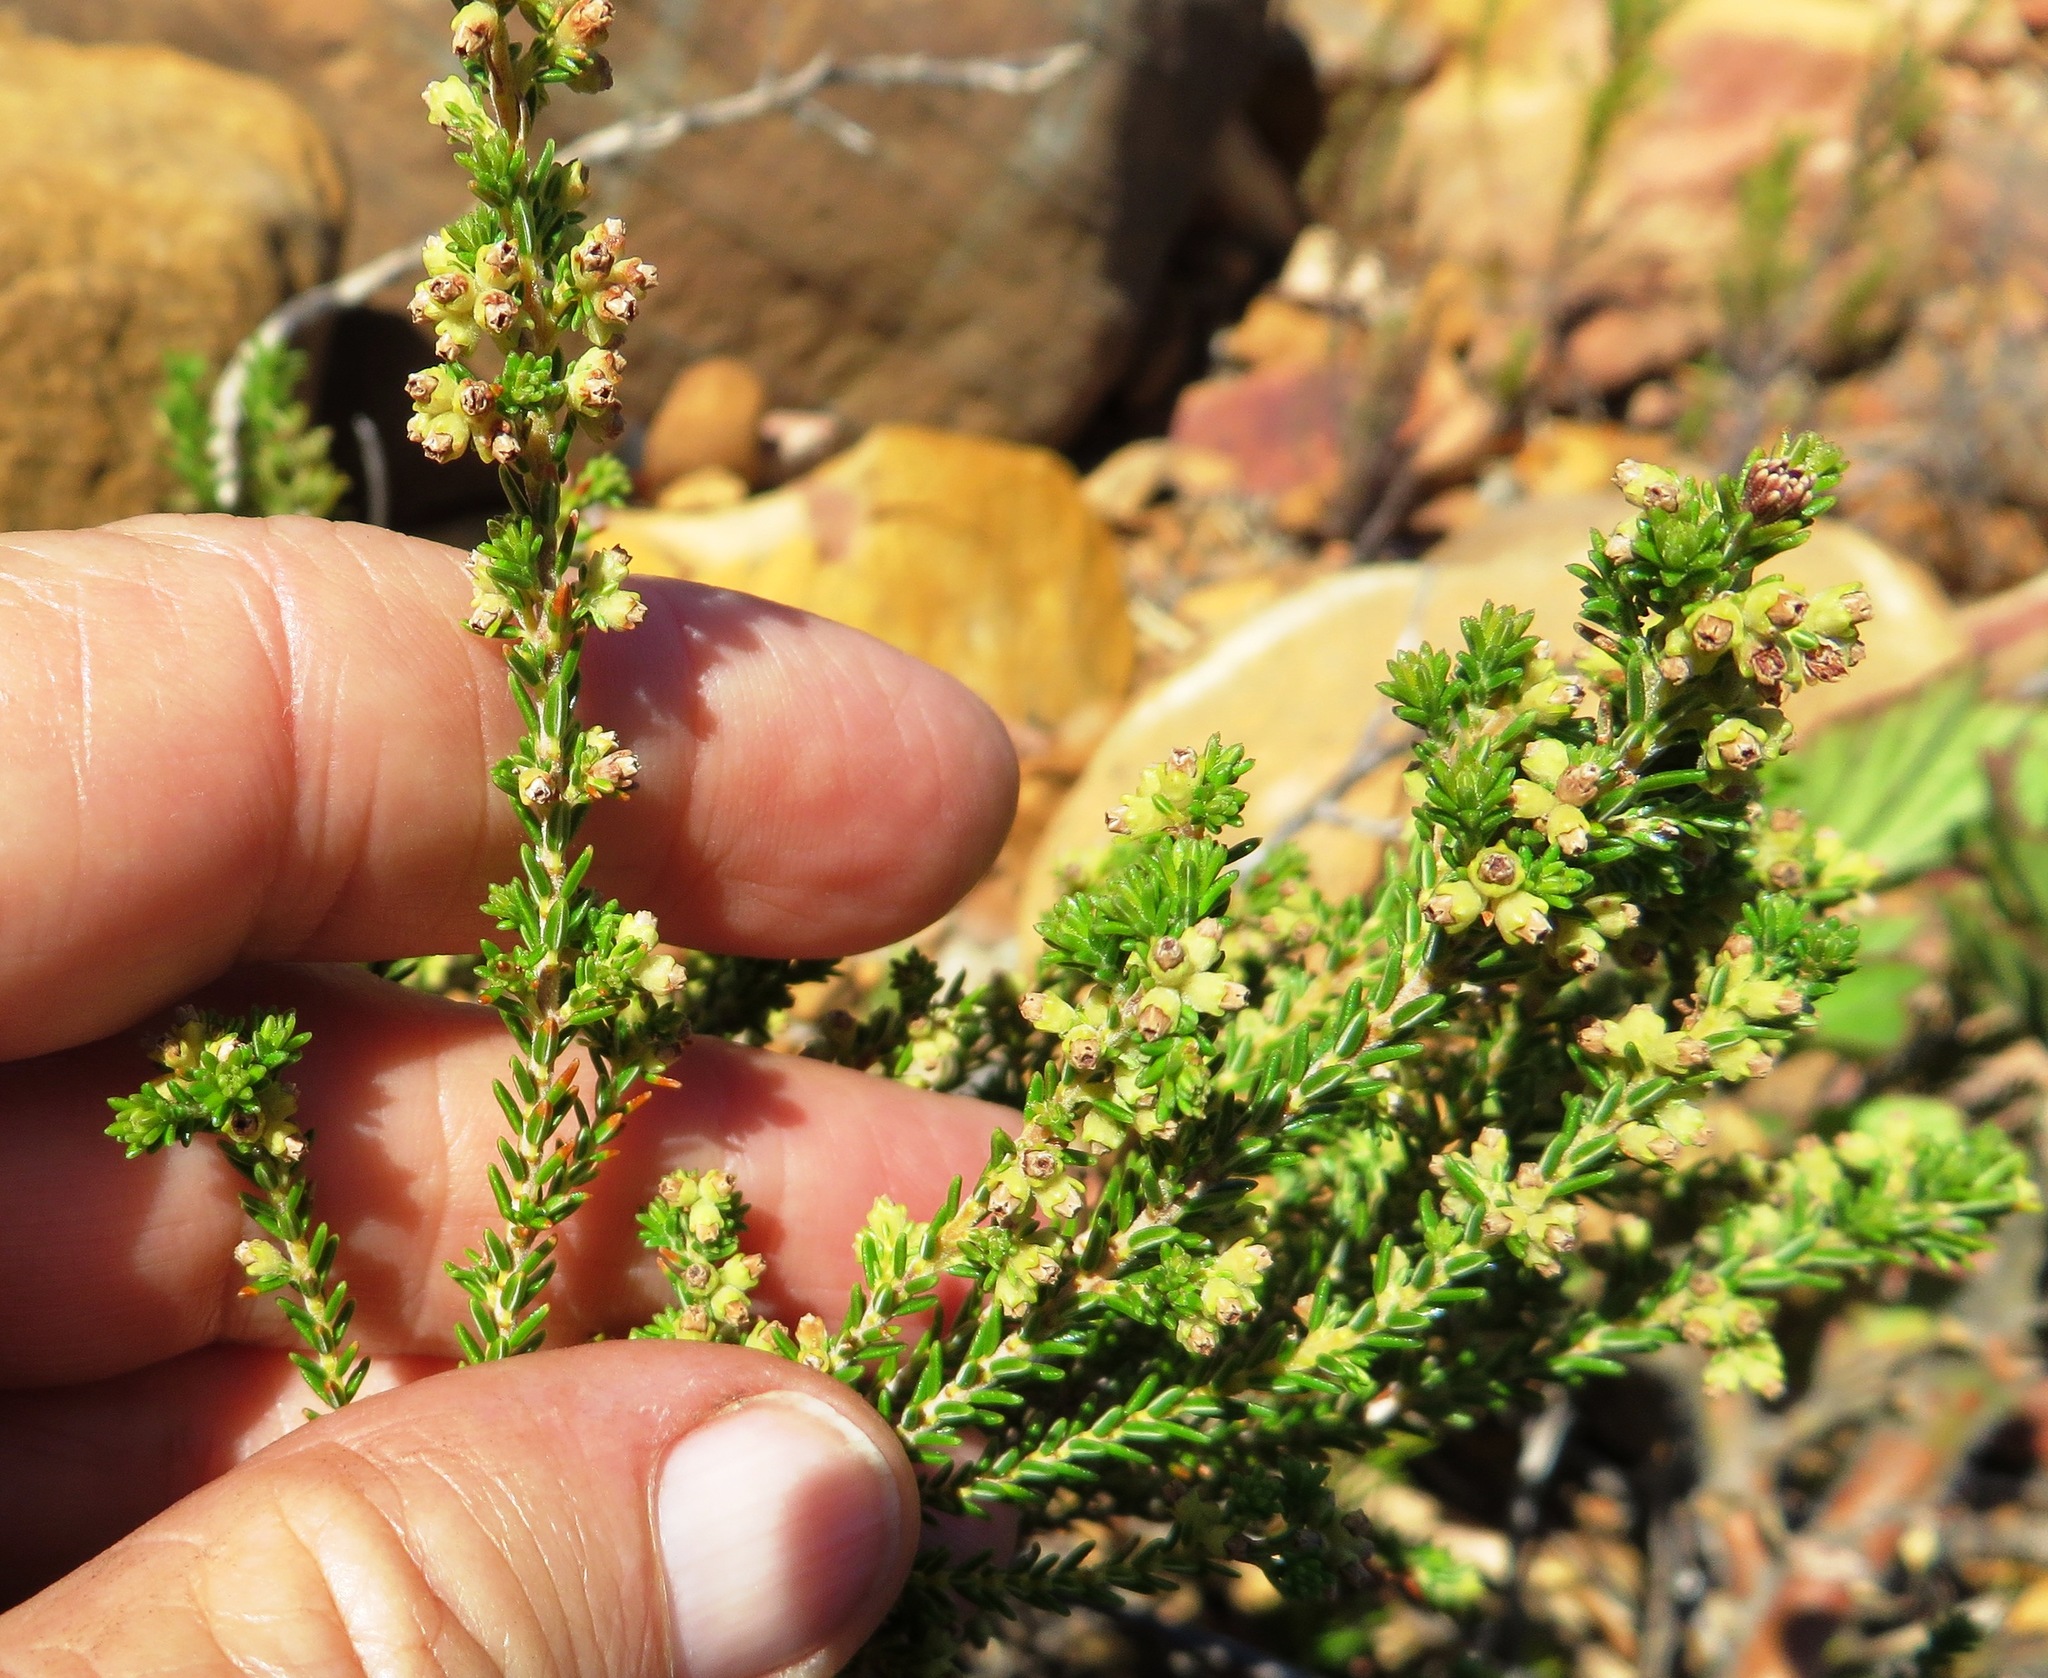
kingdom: Plantae
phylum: Tracheophyta
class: Magnoliopsida
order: Ericales
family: Ericaceae
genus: Erica
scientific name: Erica serrata
